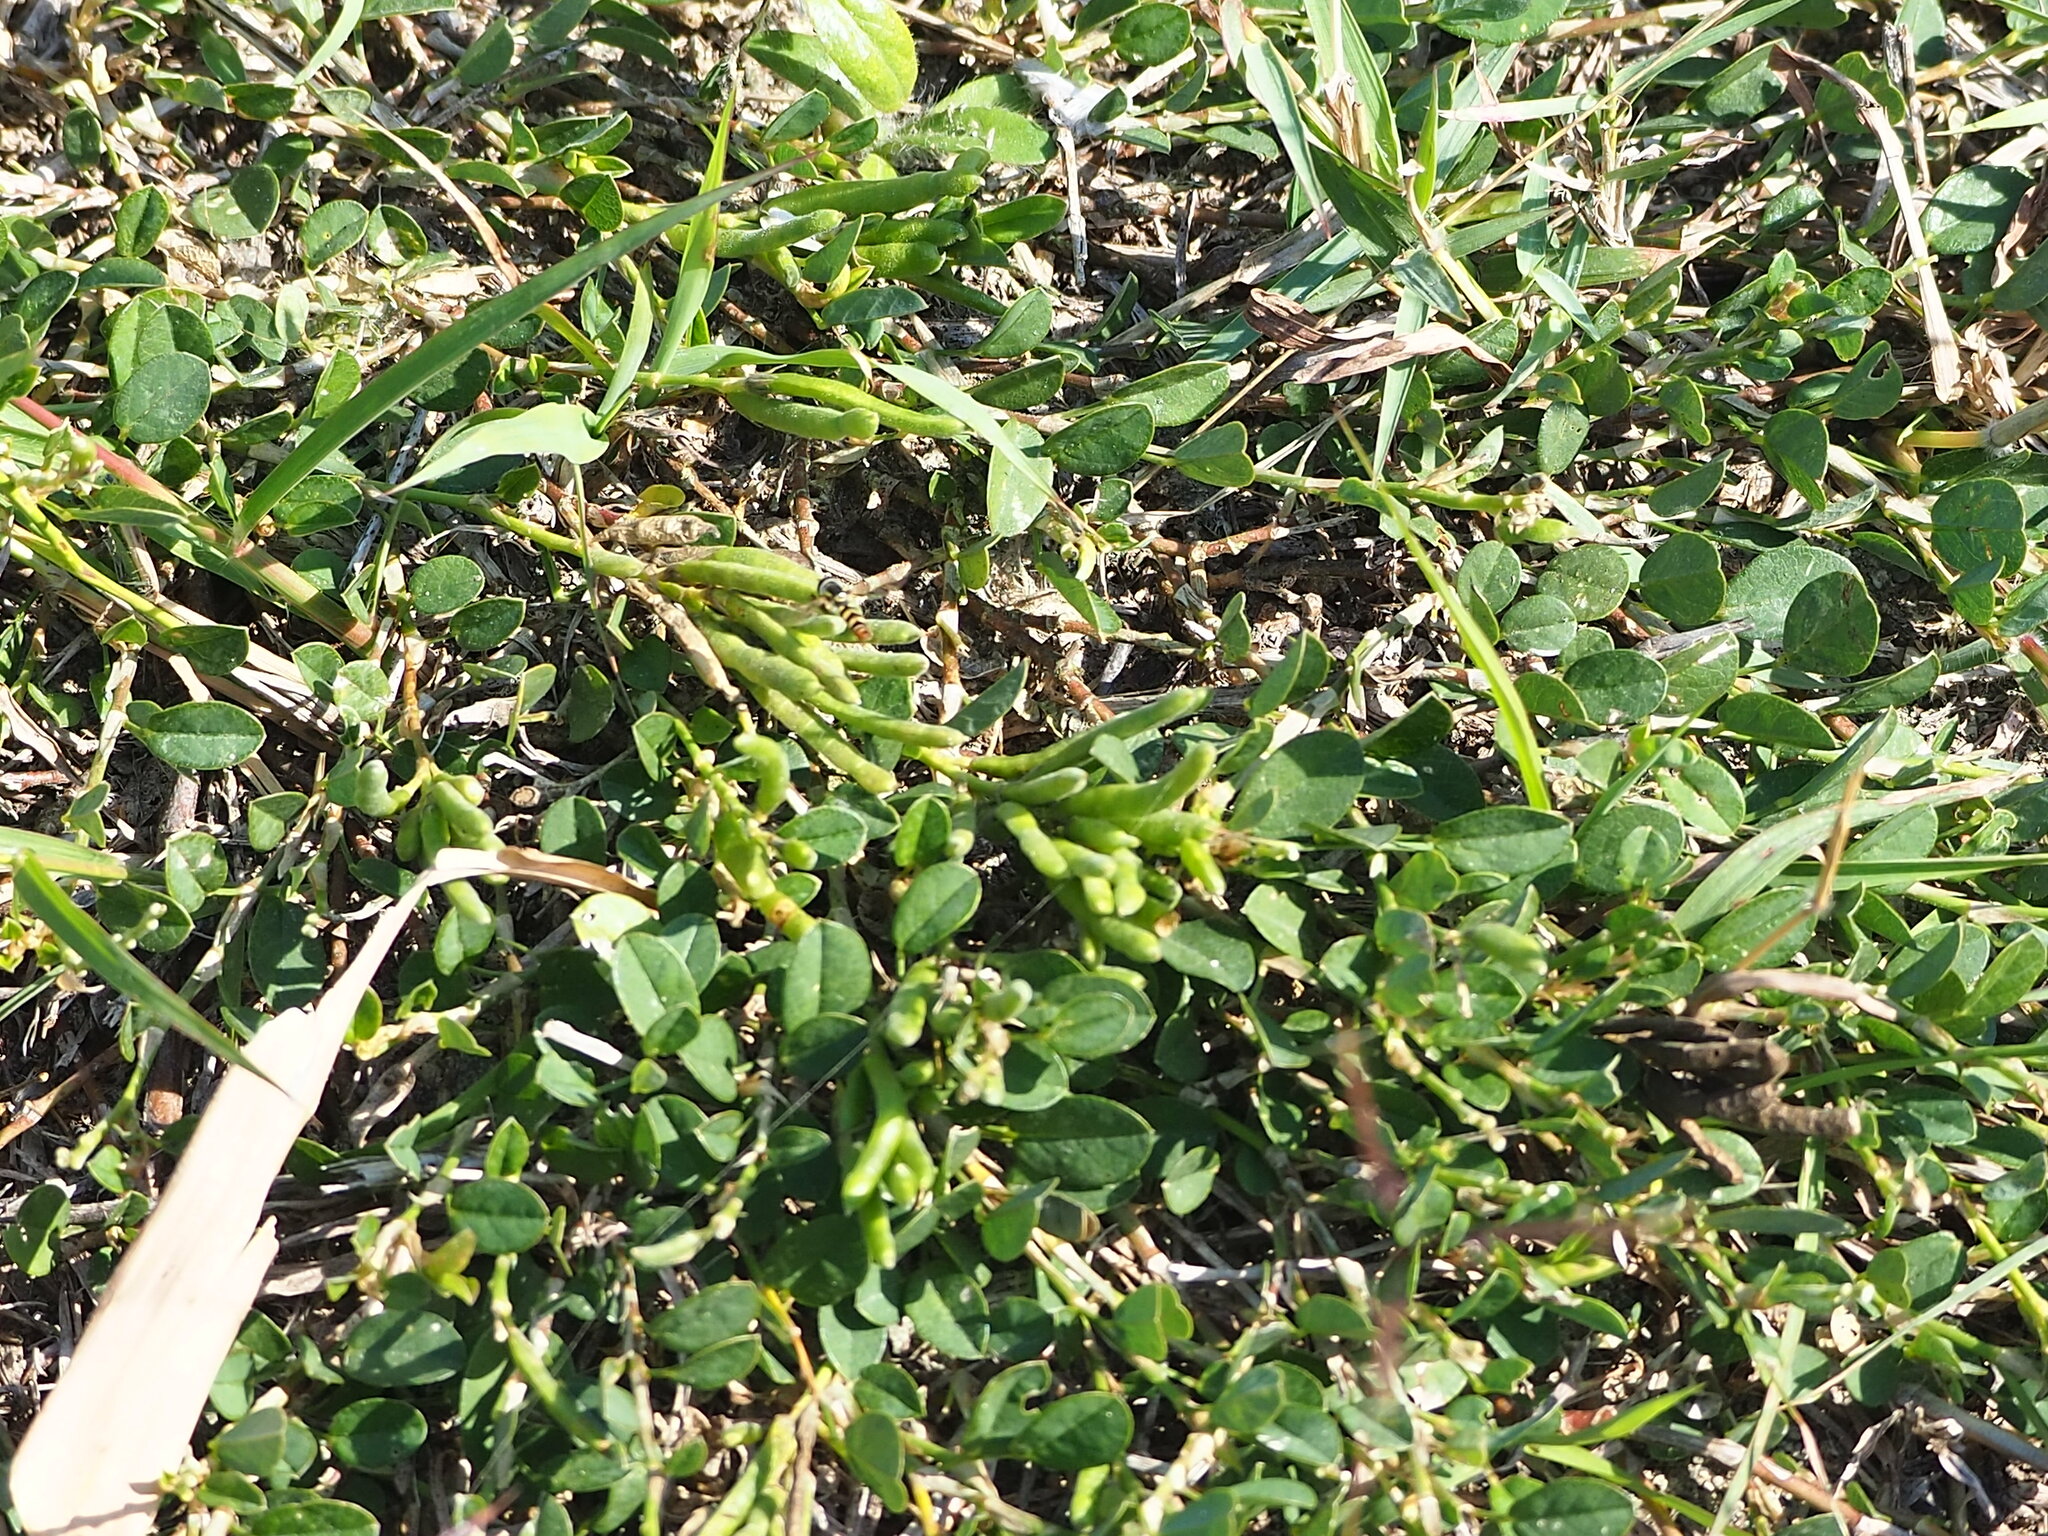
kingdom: Plantae
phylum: Tracheophyta
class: Magnoliopsida
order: Fabales
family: Fabaceae
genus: Alysicarpus
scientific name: Alysicarpus vaginalis
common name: White moneywort
